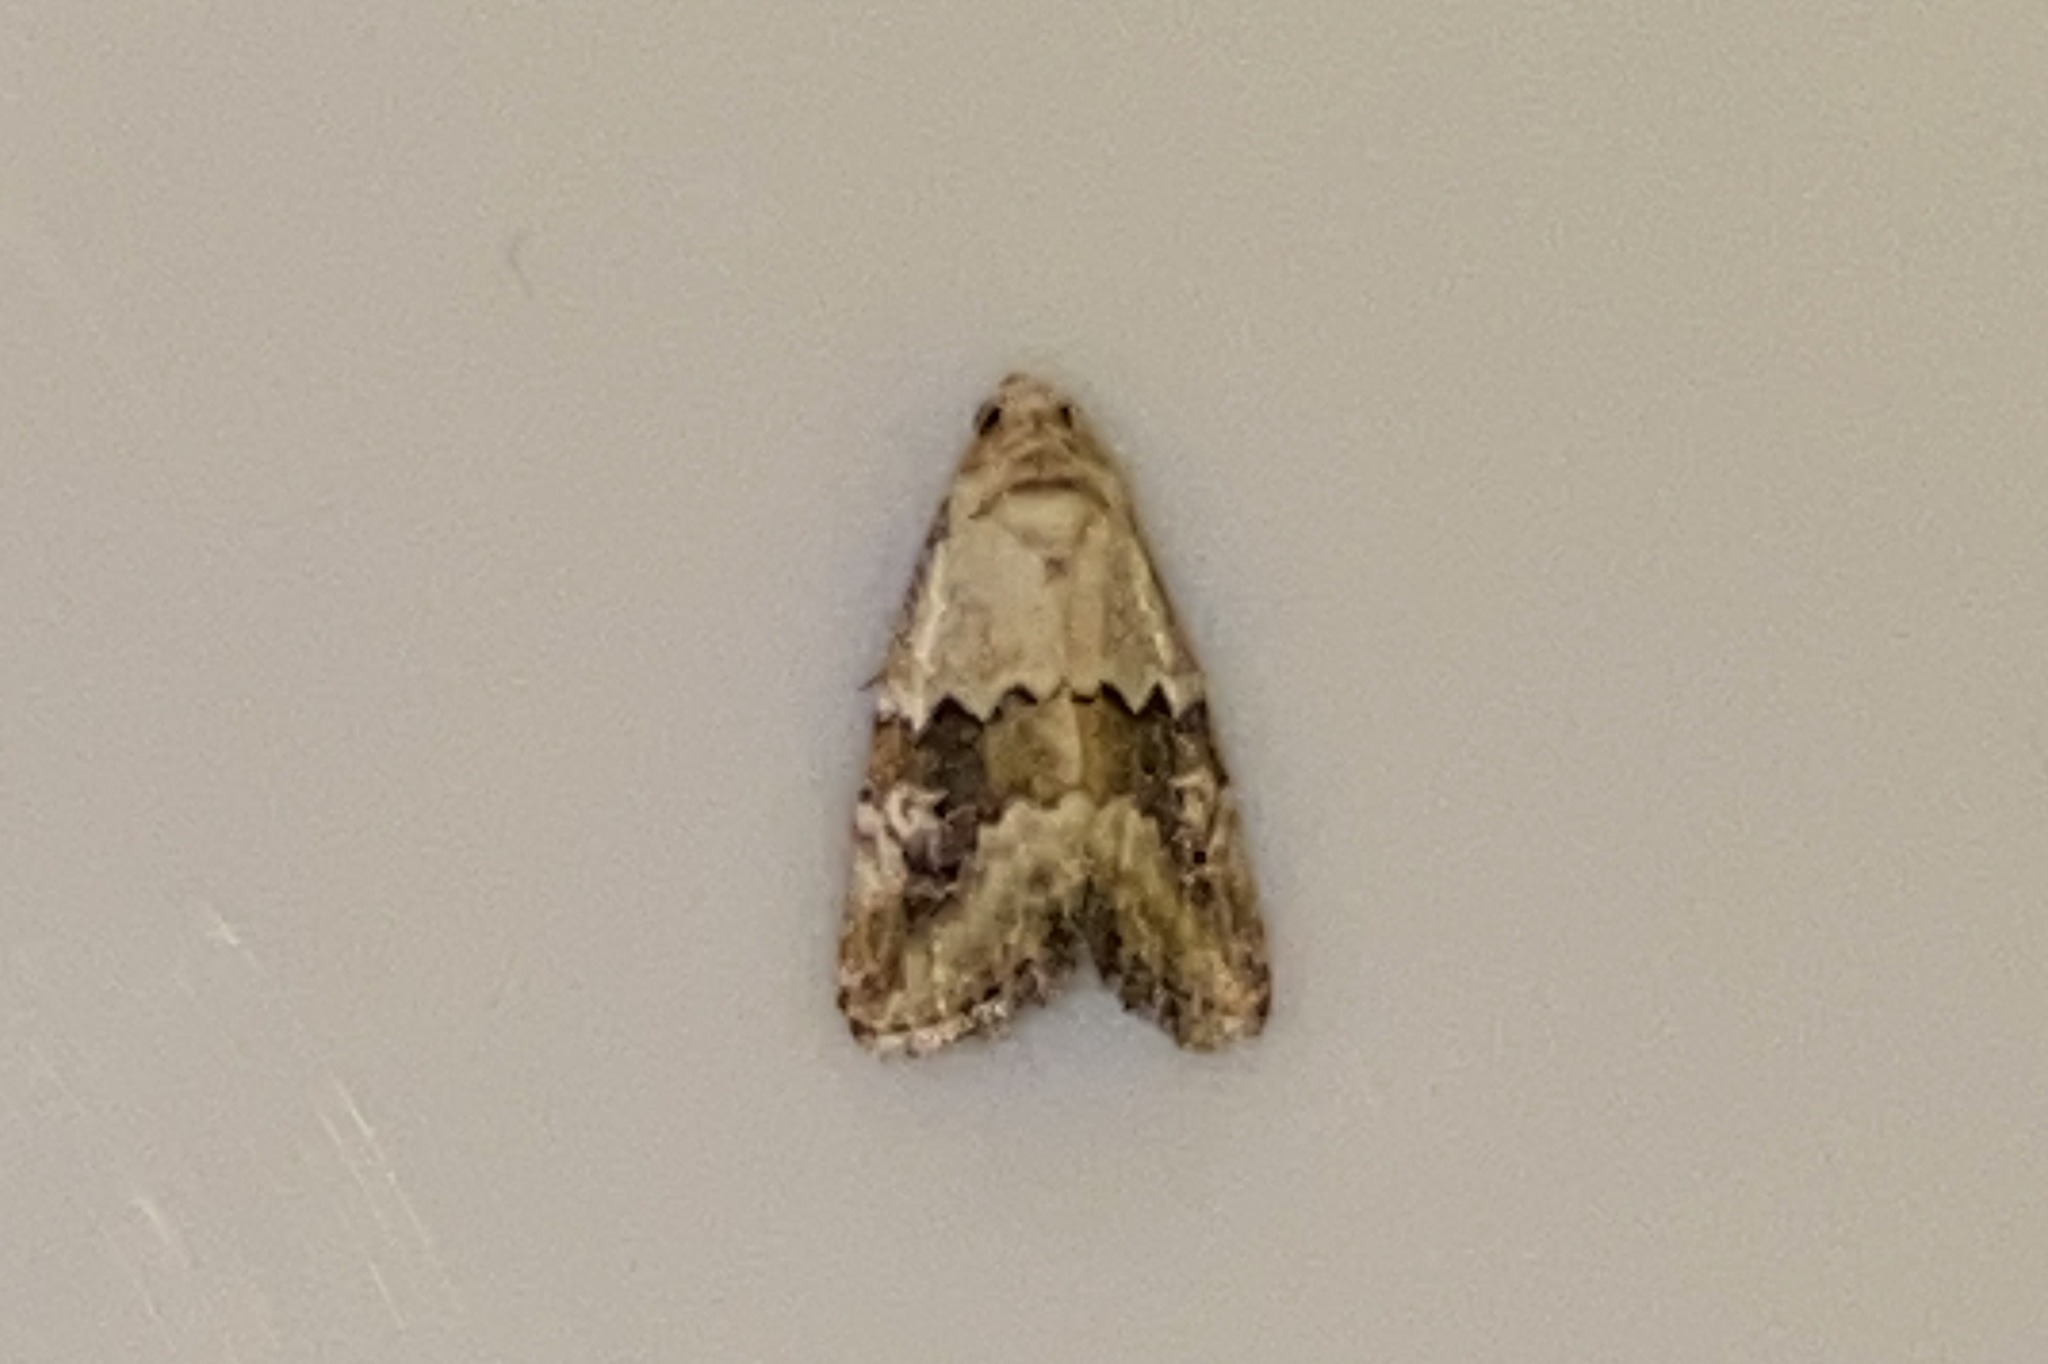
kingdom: Animalia
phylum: Arthropoda
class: Insecta
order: Lepidoptera
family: Noctuidae
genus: Maliattha
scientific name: Maliattha amorpha
